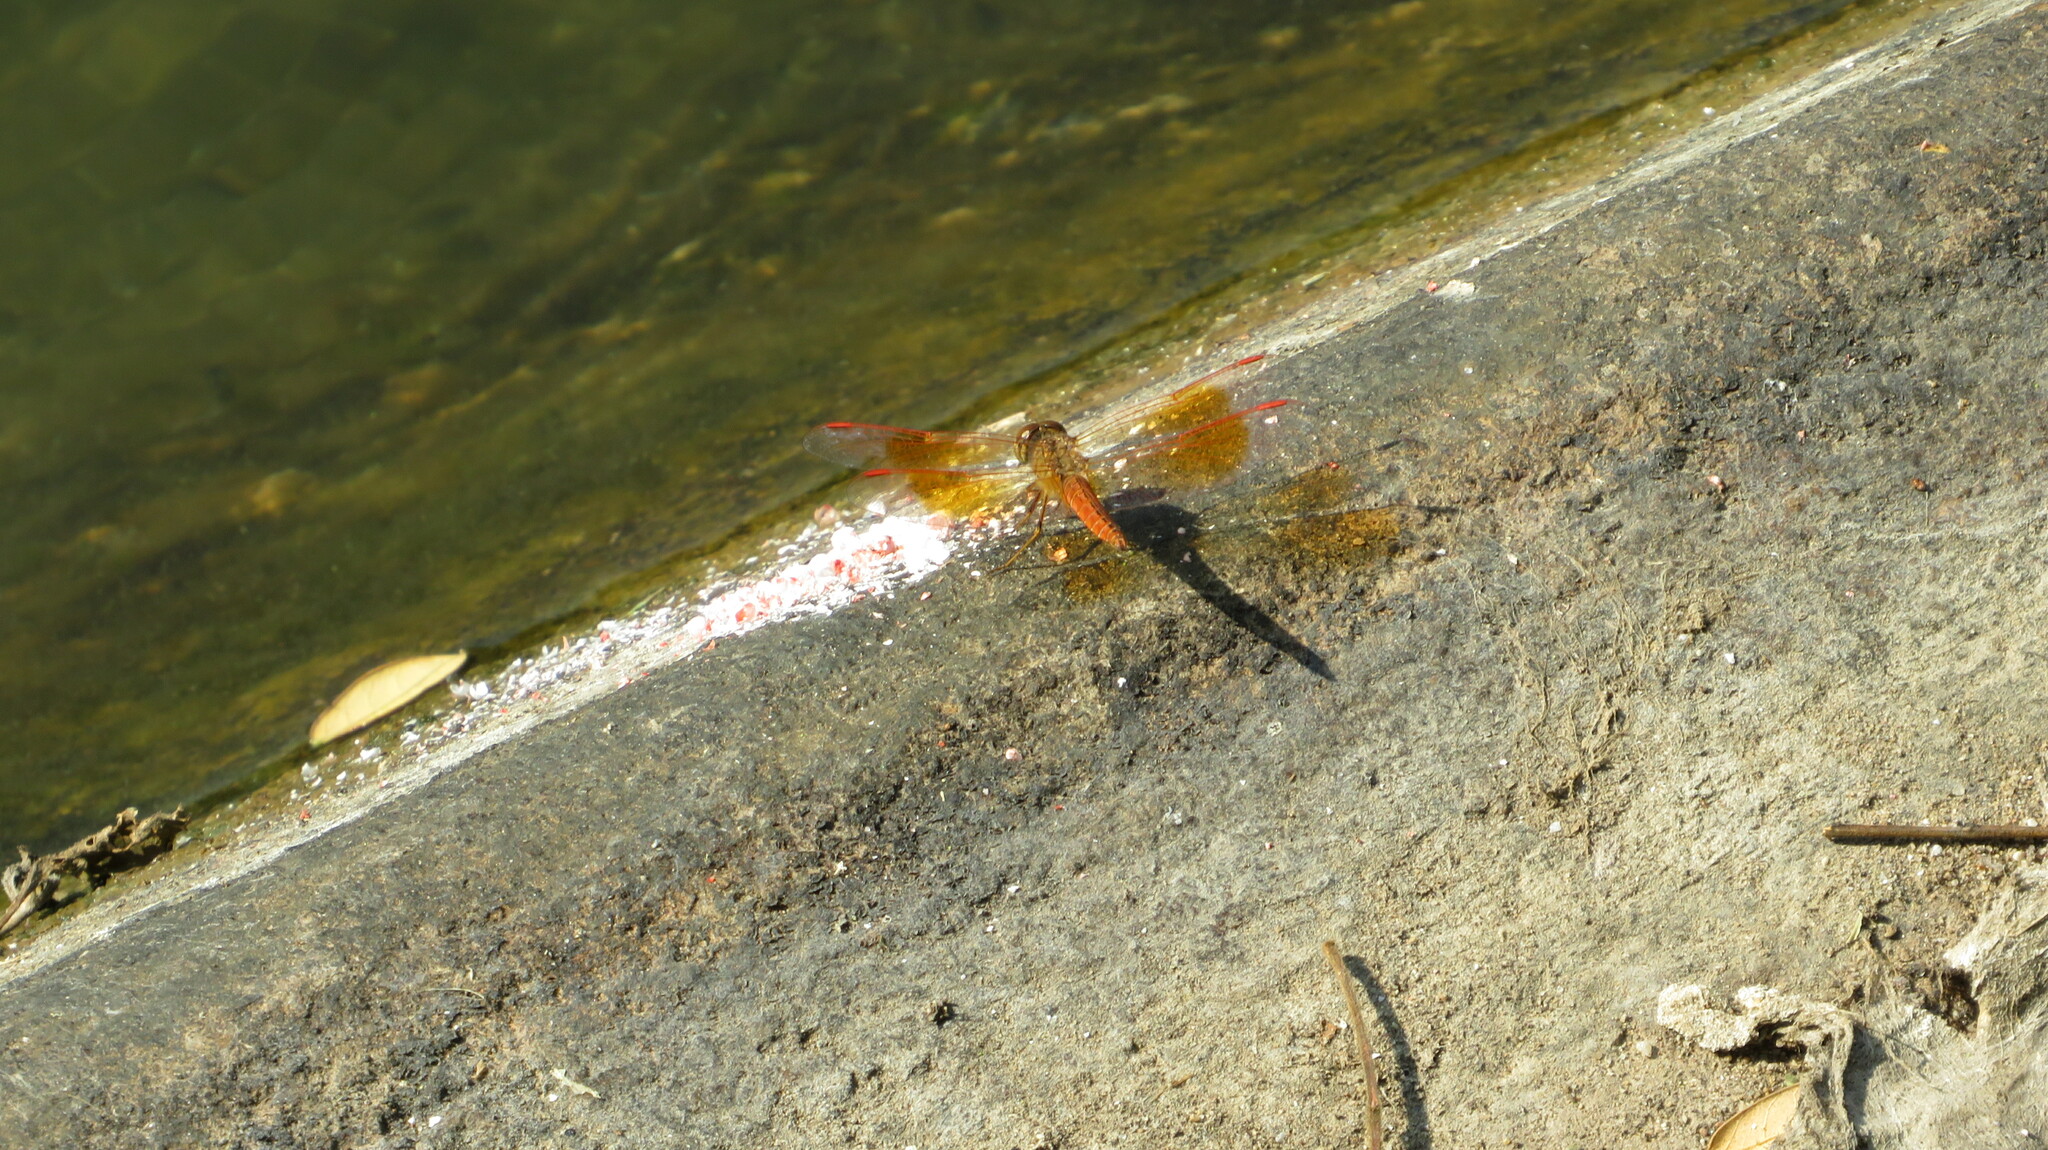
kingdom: Animalia
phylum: Arthropoda
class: Insecta
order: Odonata
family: Libellulidae
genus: Brachythemis
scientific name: Brachythemis contaminata
